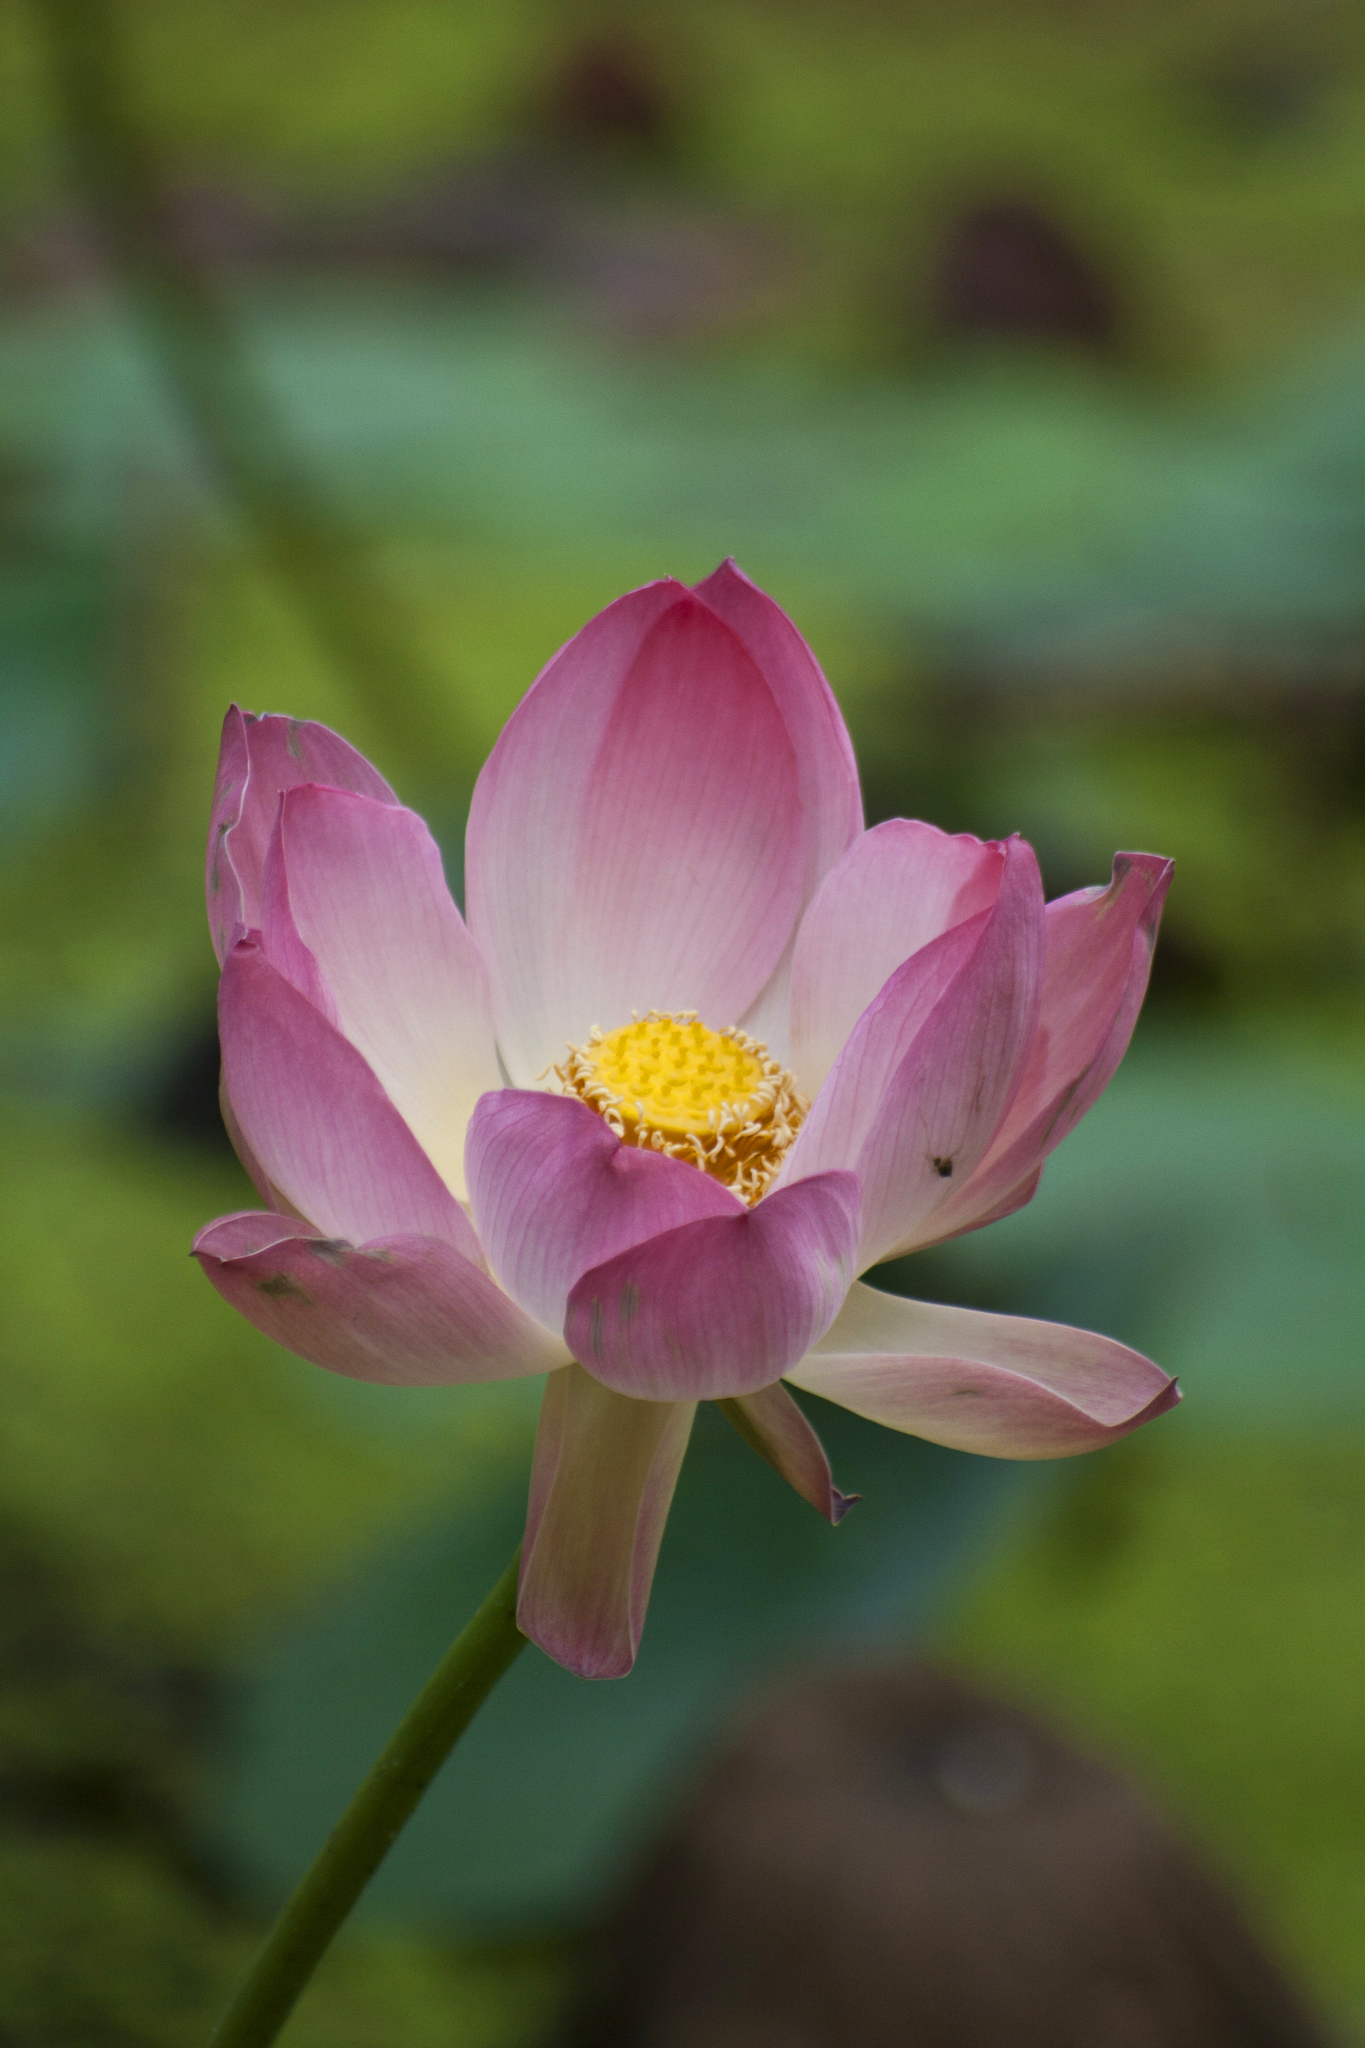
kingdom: Plantae
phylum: Tracheophyta
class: Magnoliopsida
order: Proteales
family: Nelumbonaceae
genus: Nelumbo
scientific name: Nelumbo nucifera
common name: Sacred lotus
